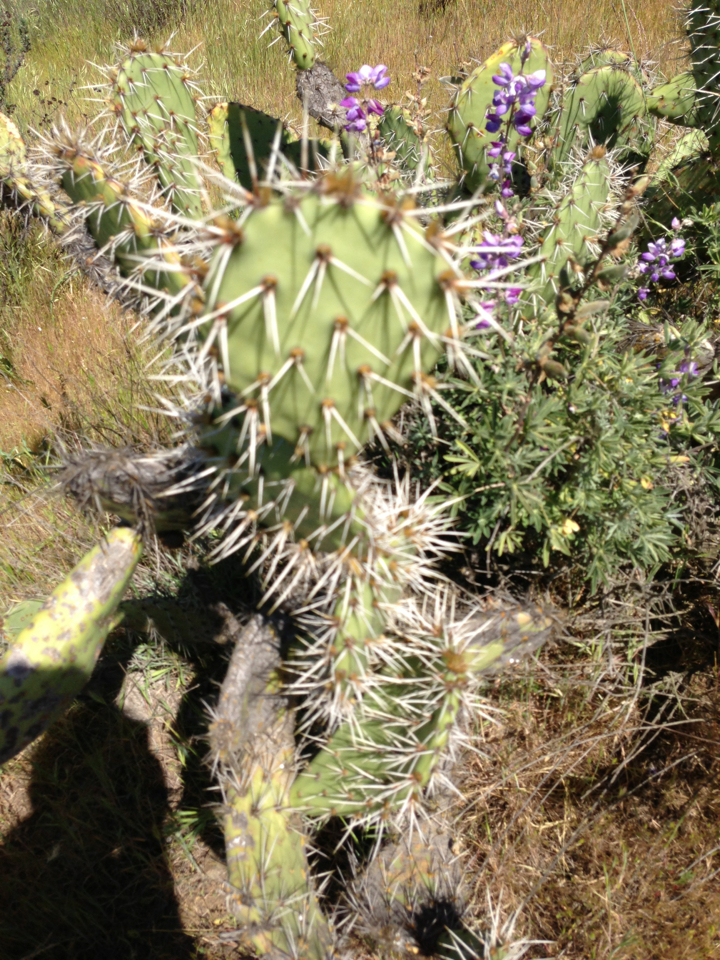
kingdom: Plantae
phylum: Tracheophyta
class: Magnoliopsida
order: Caryophyllales
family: Cactaceae
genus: Opuntia
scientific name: Opuntia littoralis
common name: Coastal prickly-pear
